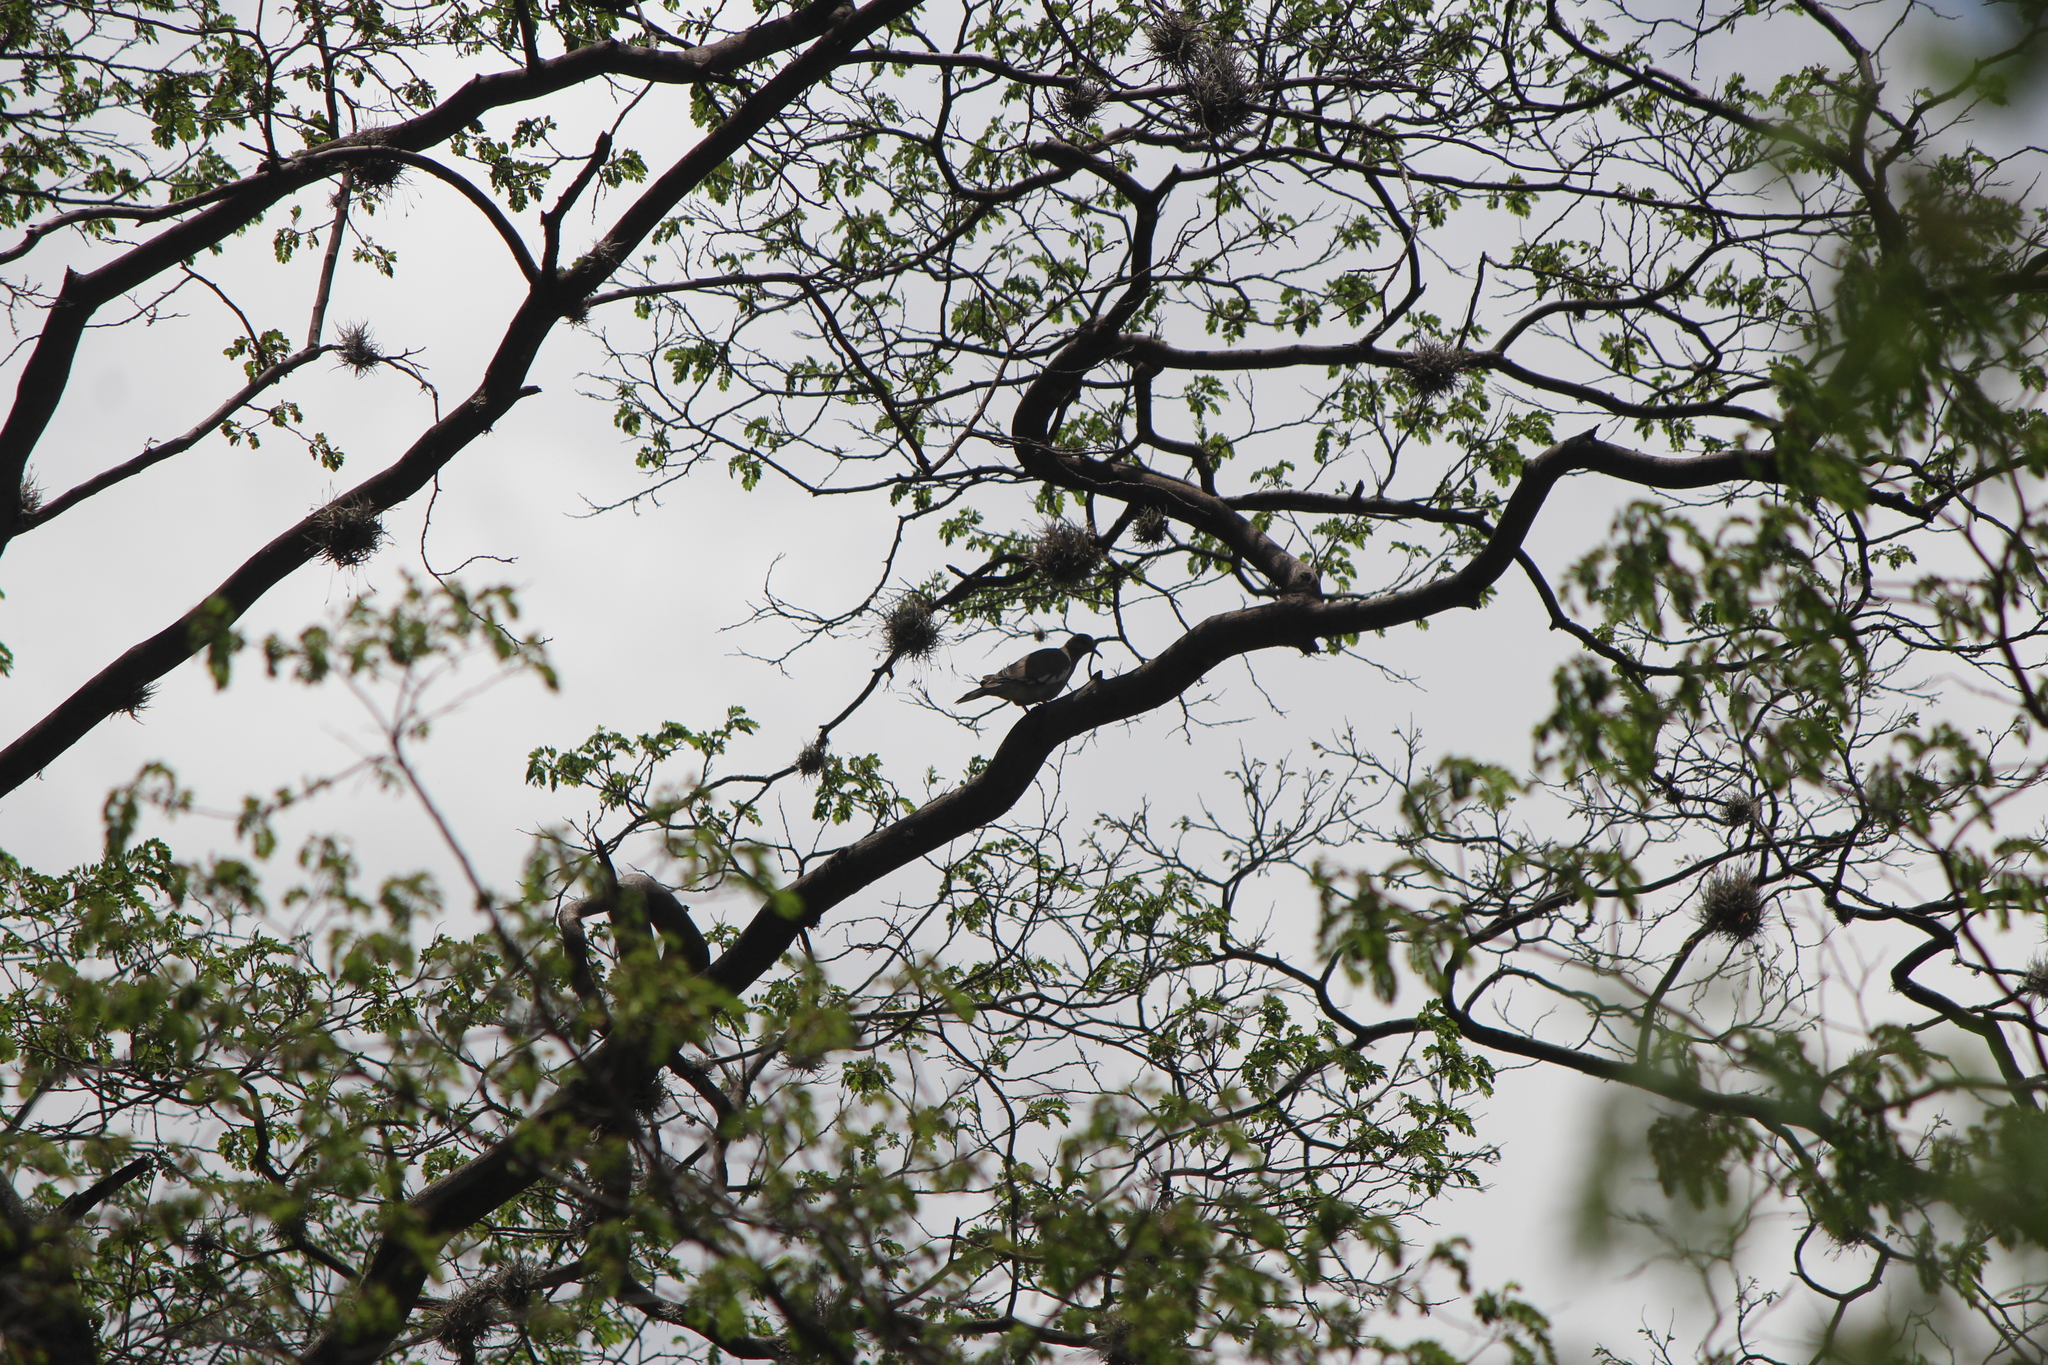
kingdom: Animalia
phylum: Chordata
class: Aves
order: Columbiformes
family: Columbidae
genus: Zenaida
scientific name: Zenaida asiatica
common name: White-winged dove
